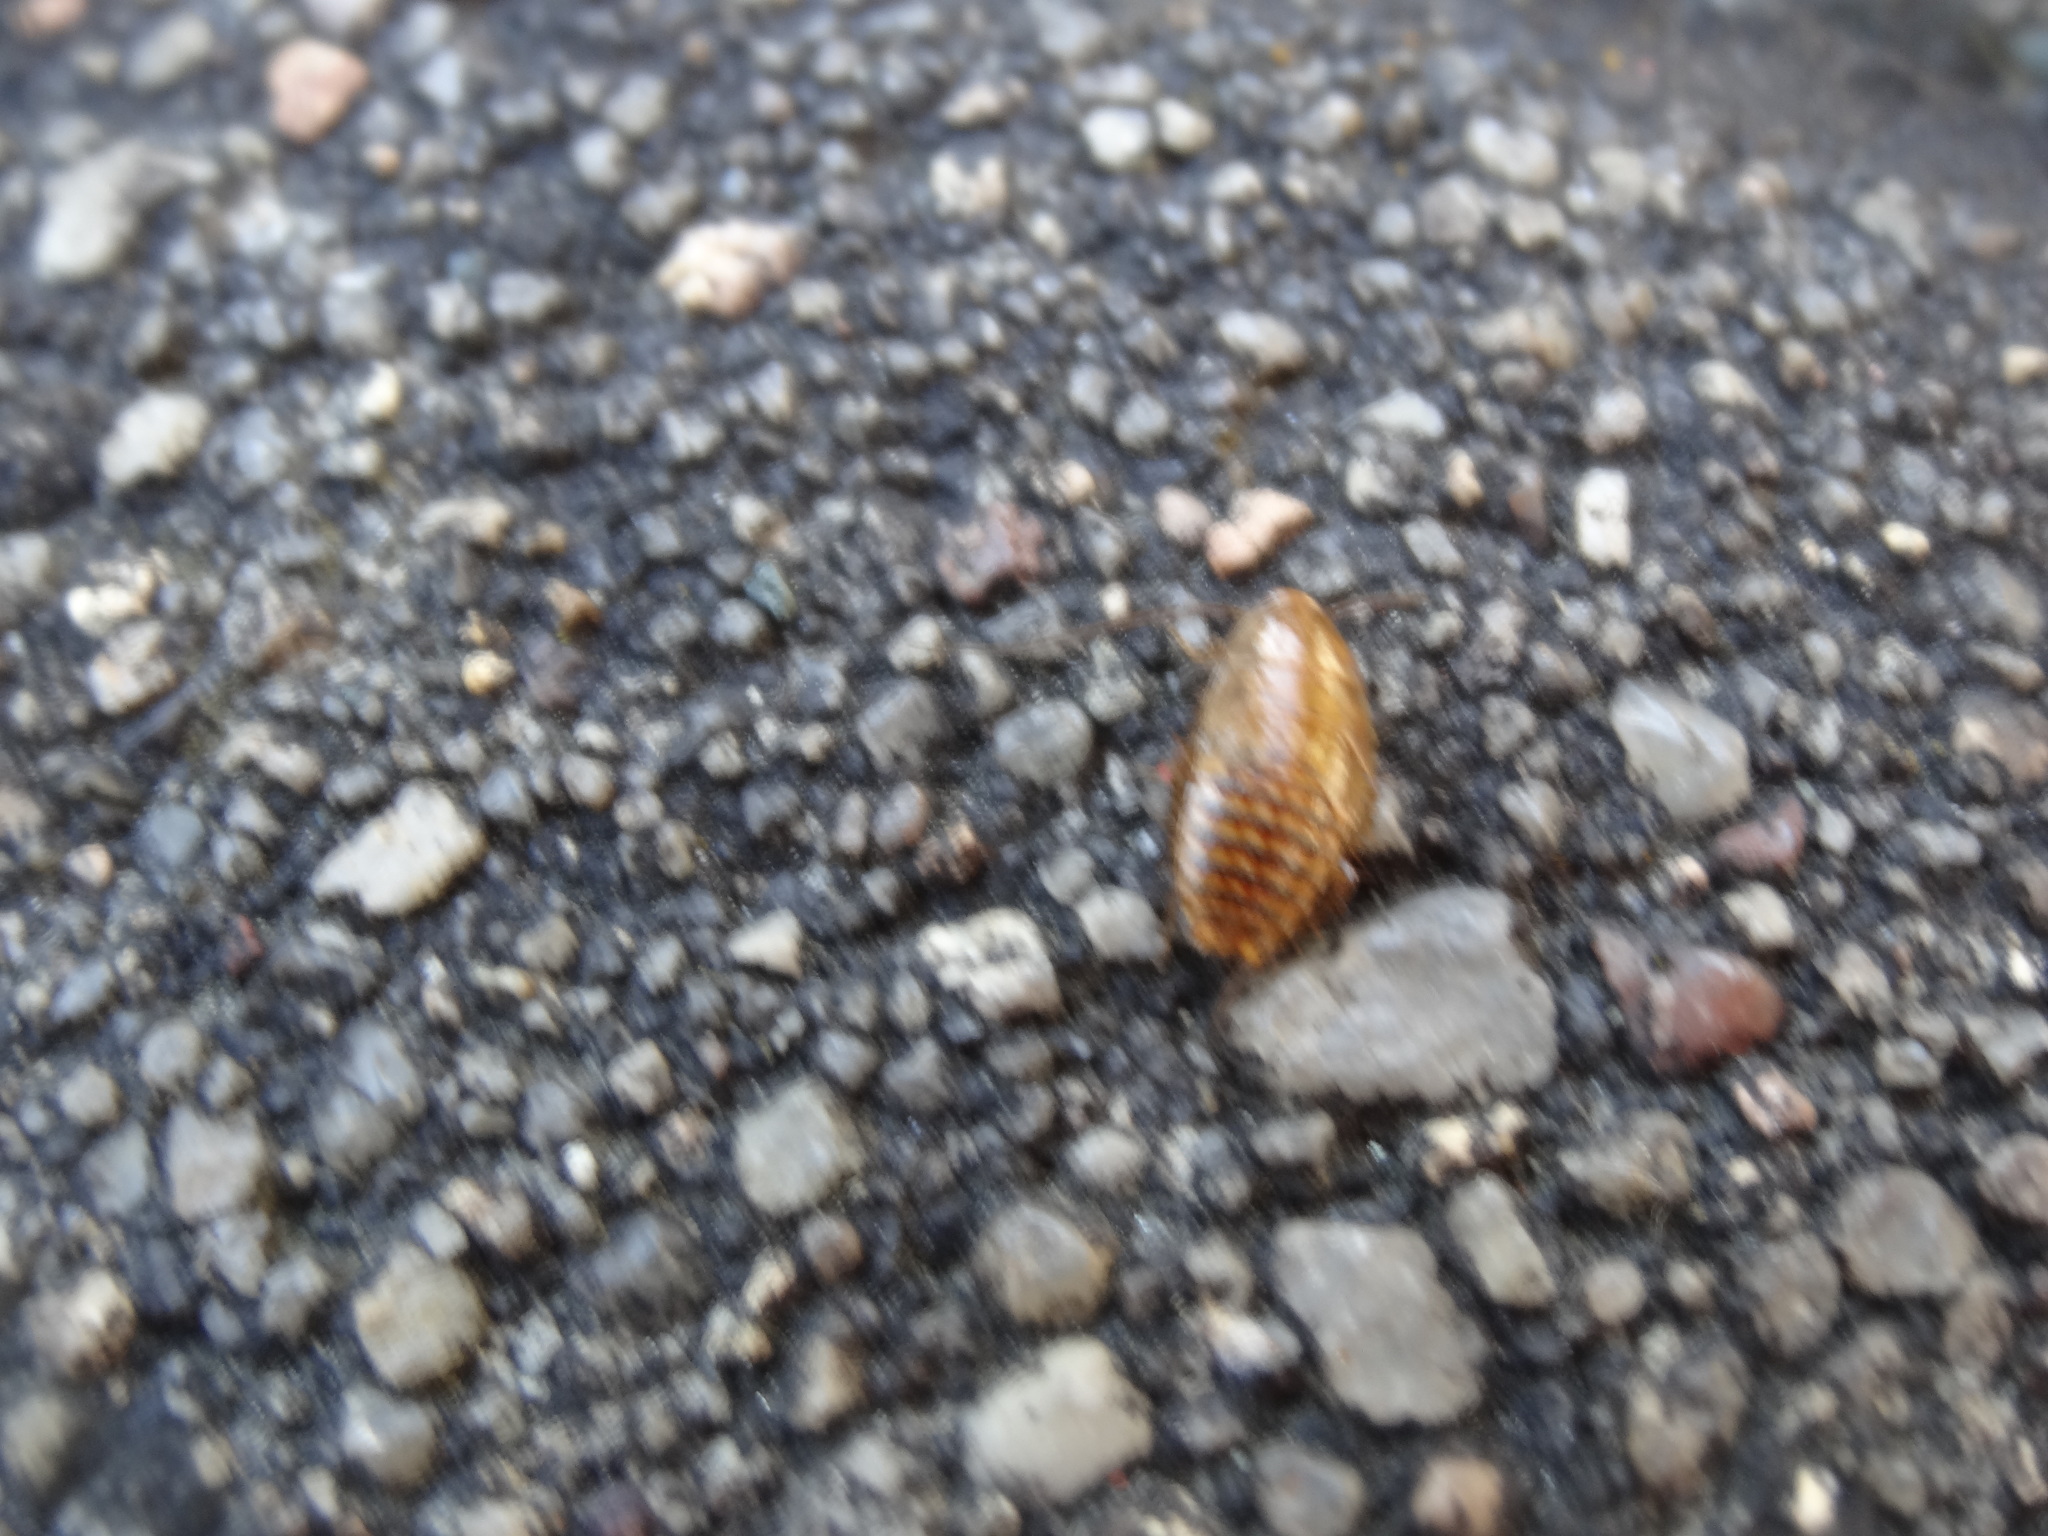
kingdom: Animalia
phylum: Arthropoda
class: Insecta
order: Blattodea
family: Ectobiidae
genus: Ectobius
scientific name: Ectobius lapponicus
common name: Dusky cockroach
